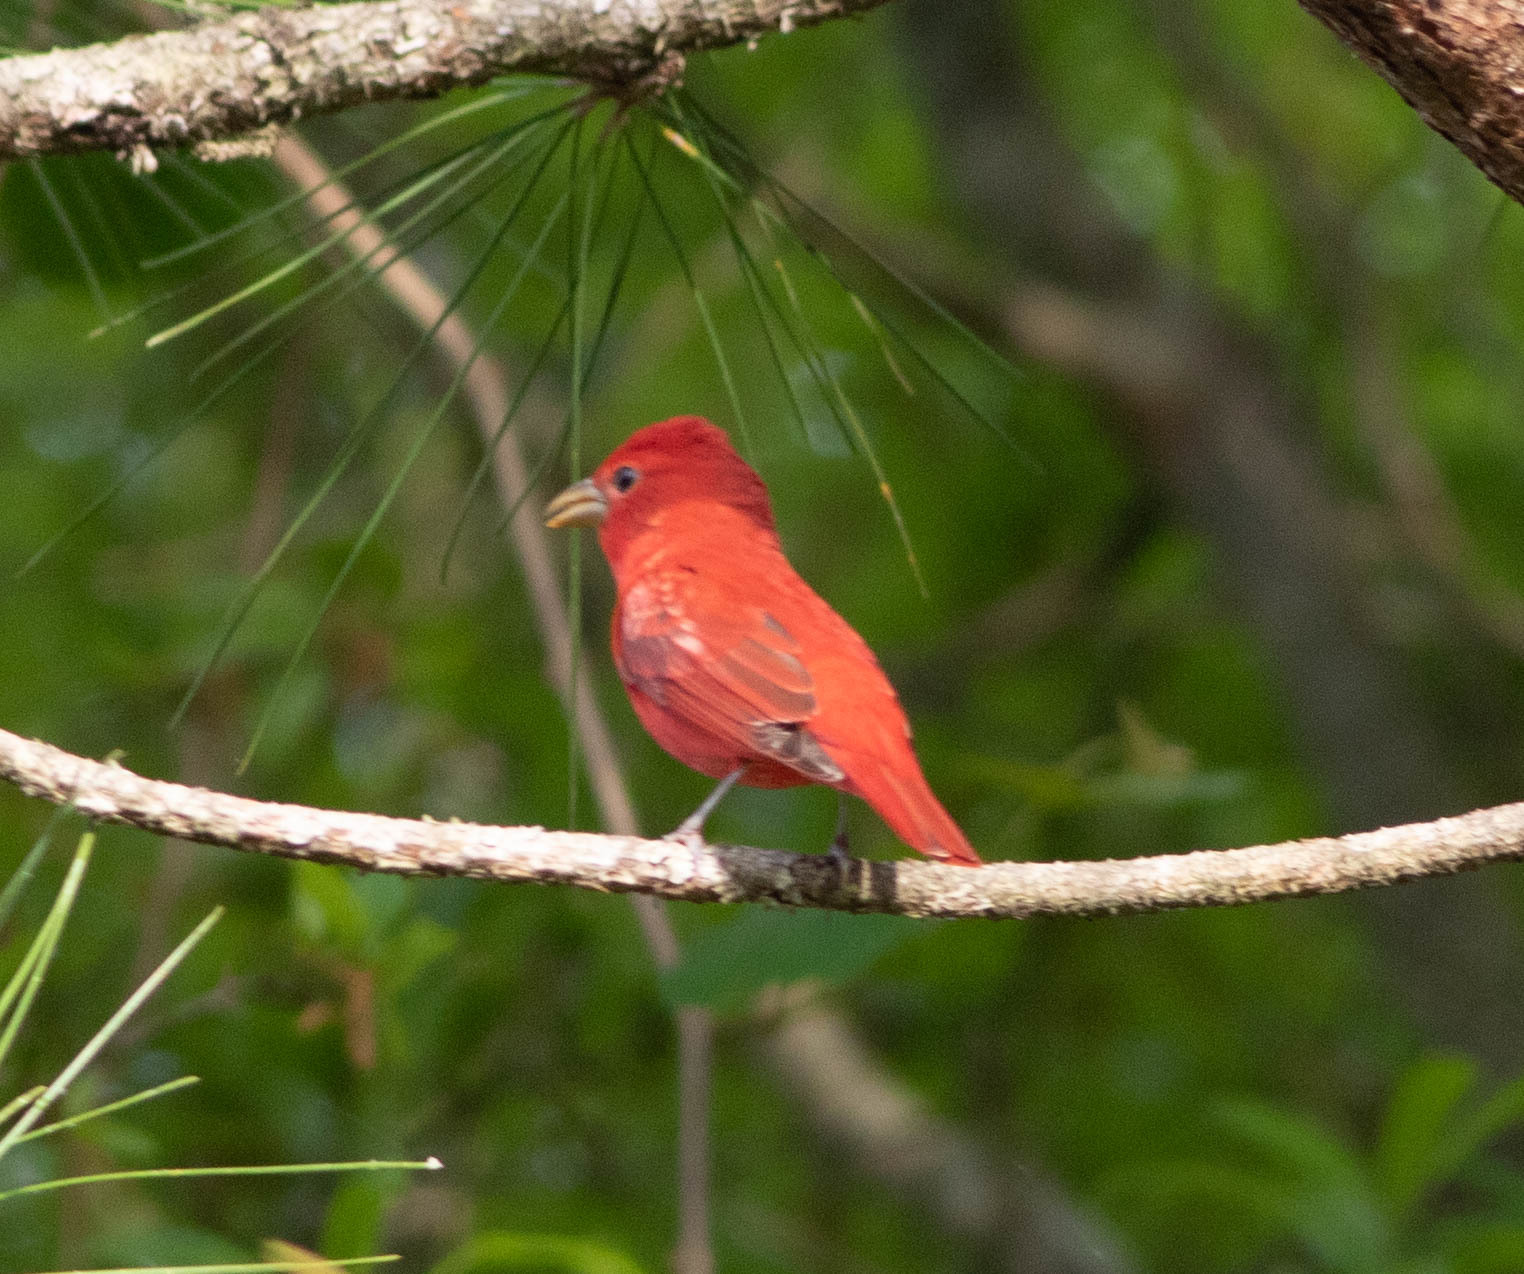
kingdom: Animalia
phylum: Chordata
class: Aves
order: Passeriformes
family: Cardinalidae
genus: Piranga
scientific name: Piranga rubra
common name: Summer tanager
